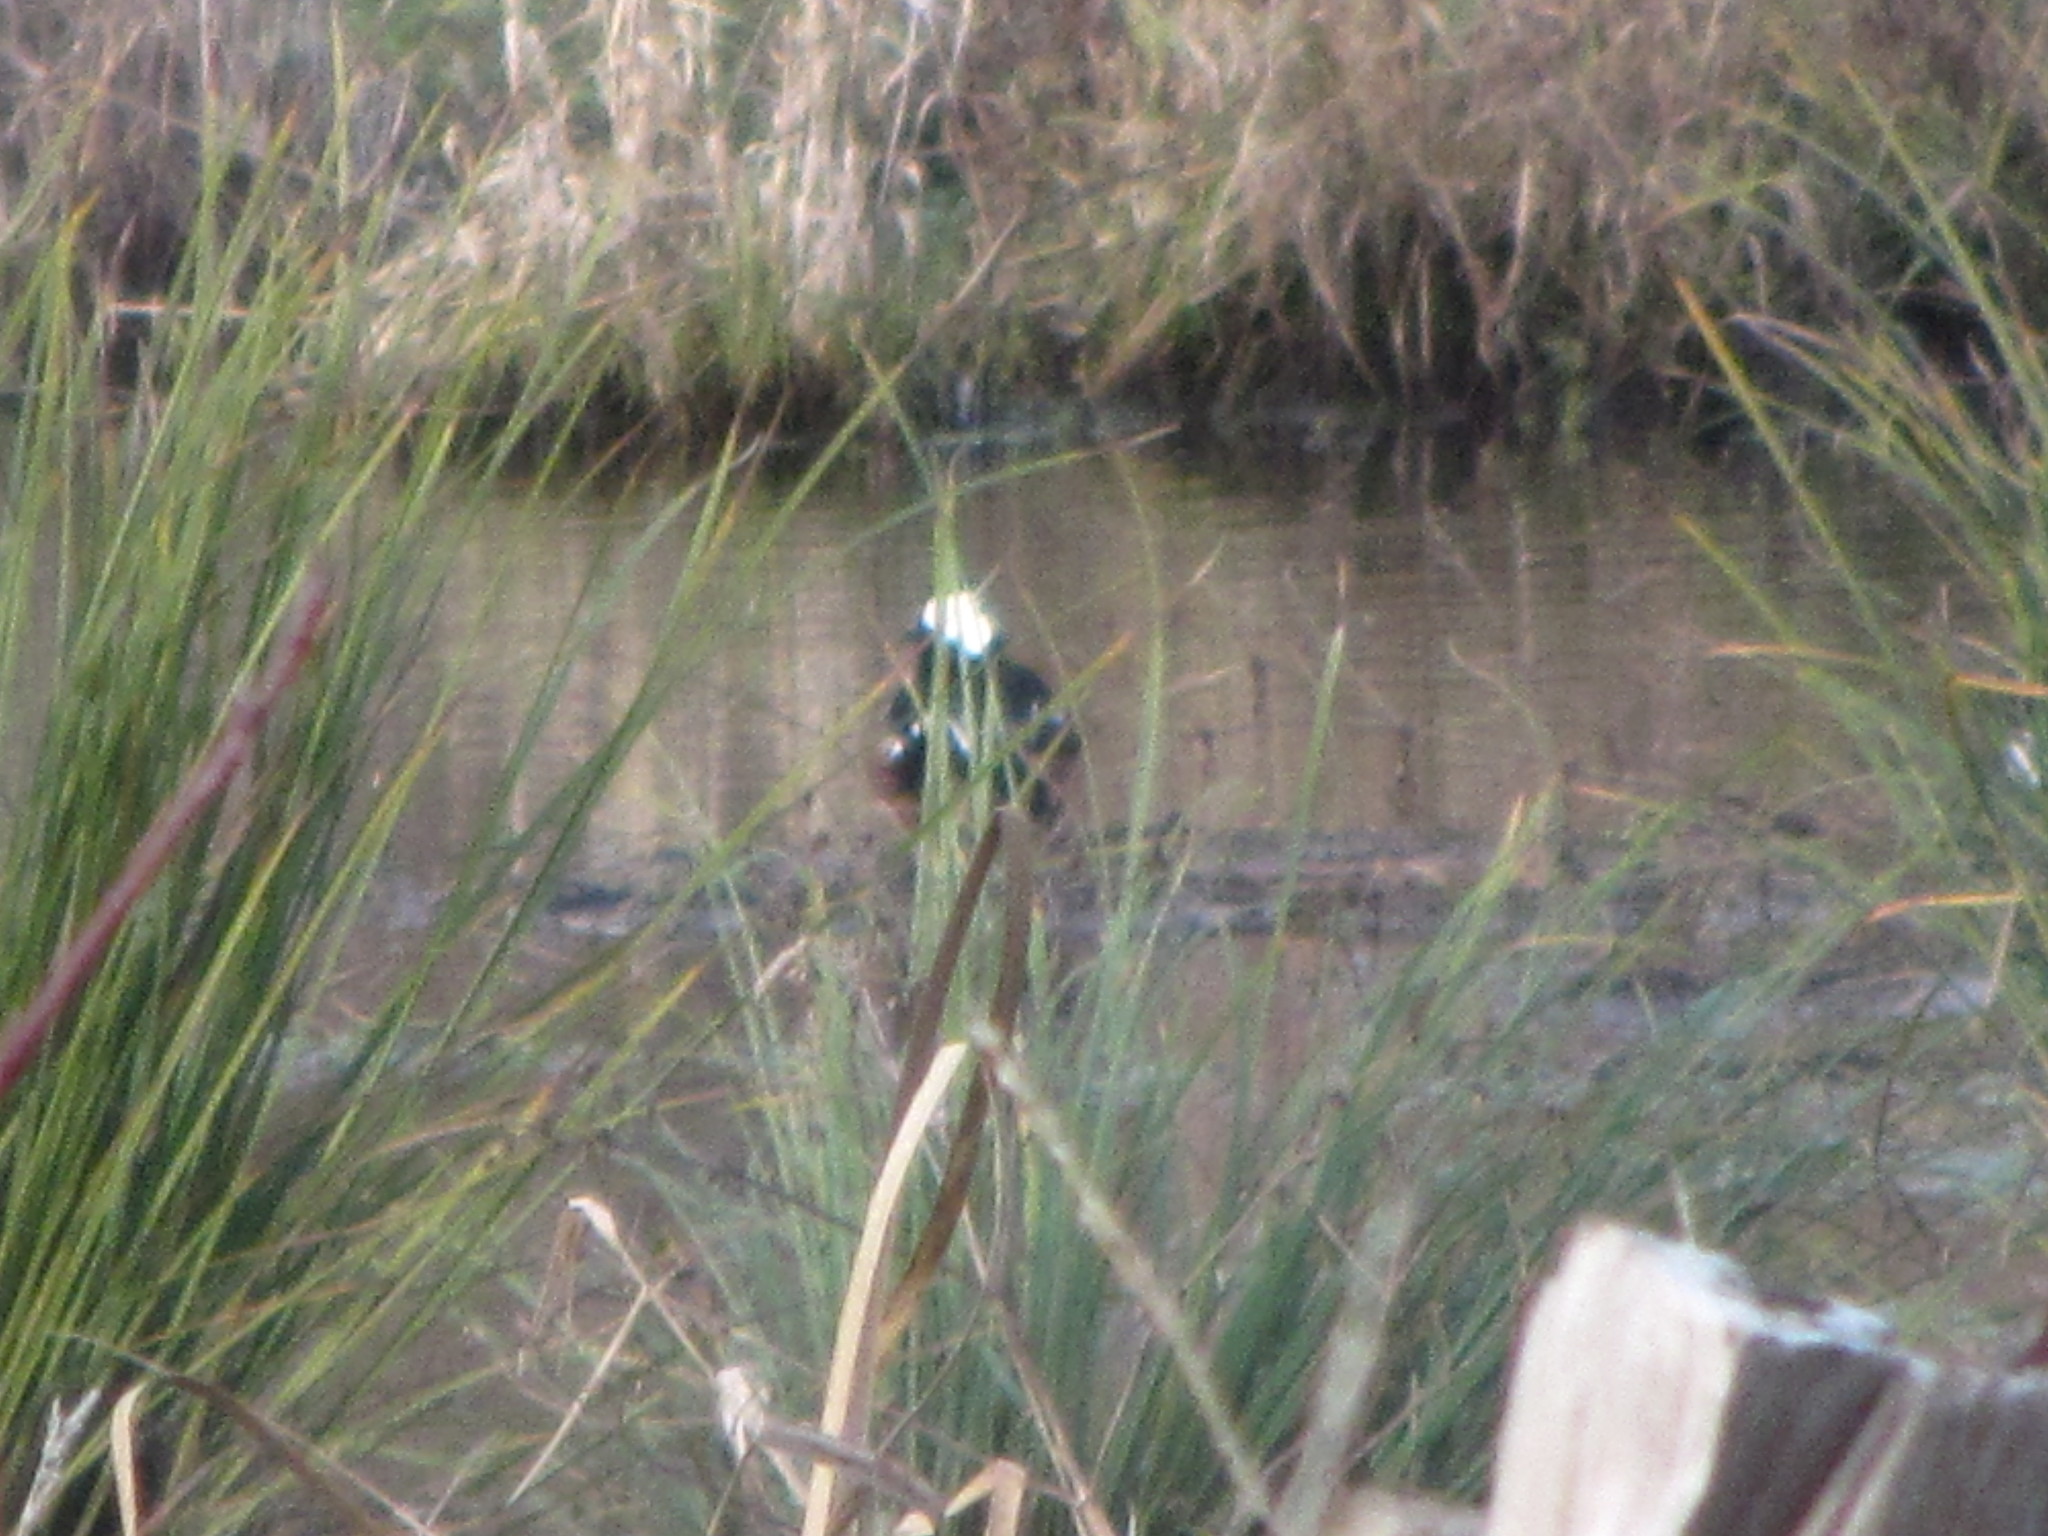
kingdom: Animalia
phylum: Chordata
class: Aves
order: Anseriformes
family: Anatidae
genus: Lophodytes
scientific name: Lophodytes cucullatus
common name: Hooded merganser
